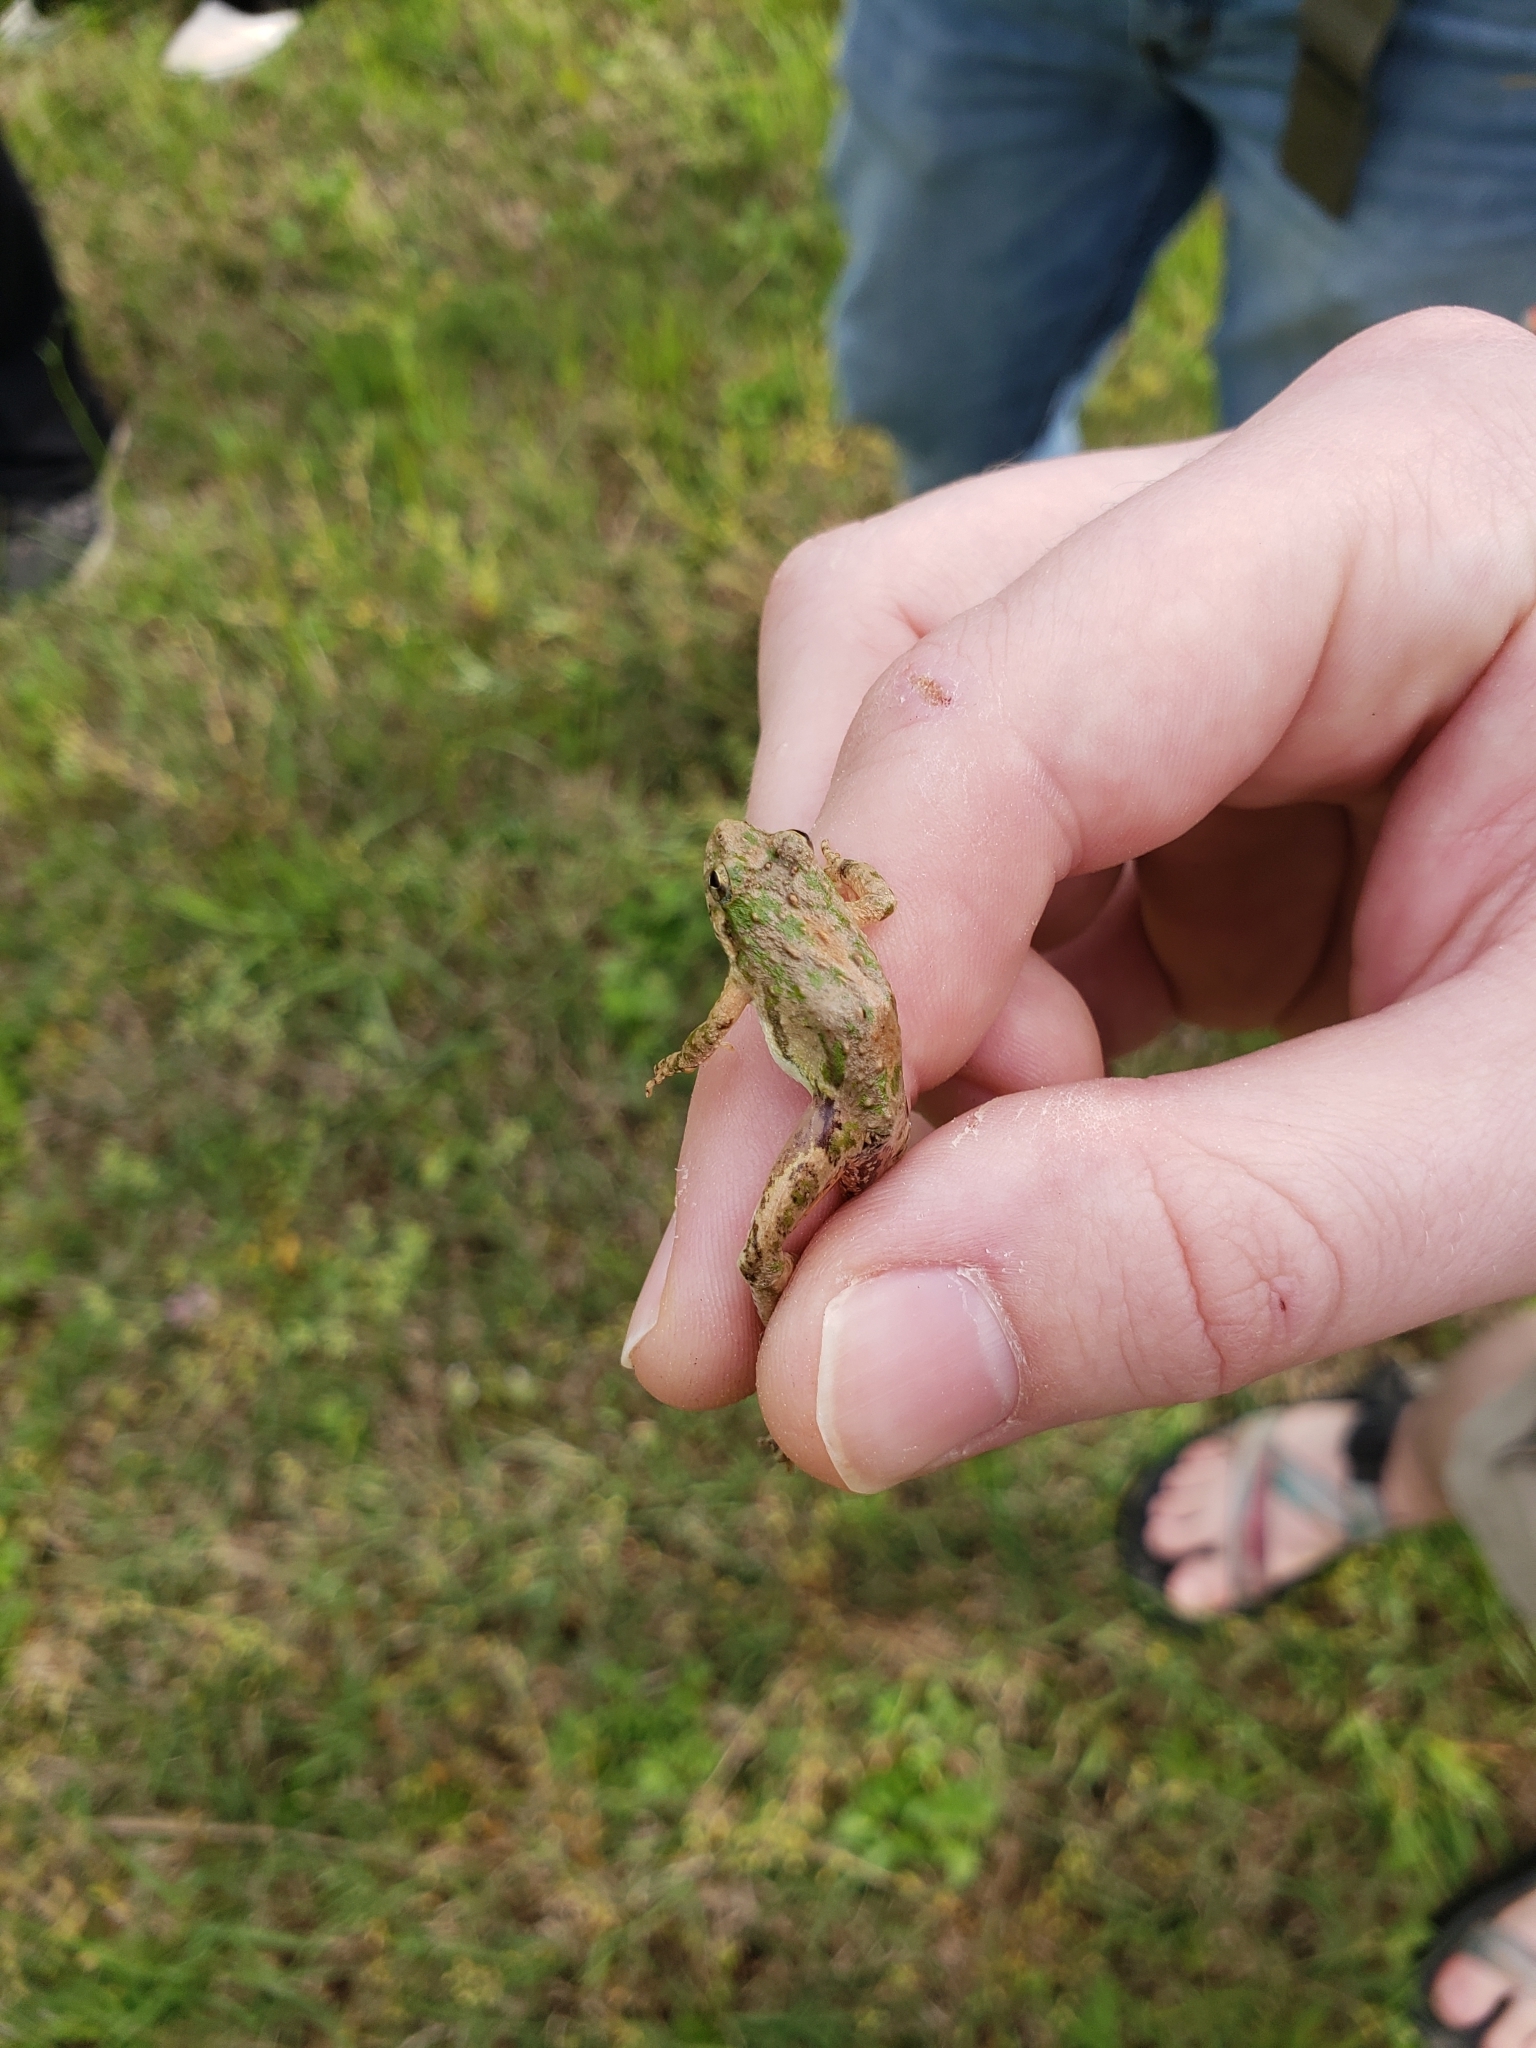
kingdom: Animalia
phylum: Chordata
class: Amphibia
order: Anura
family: Hylidae
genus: Acris
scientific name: Acris blanchardi
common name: Blanchard's cricket frog
